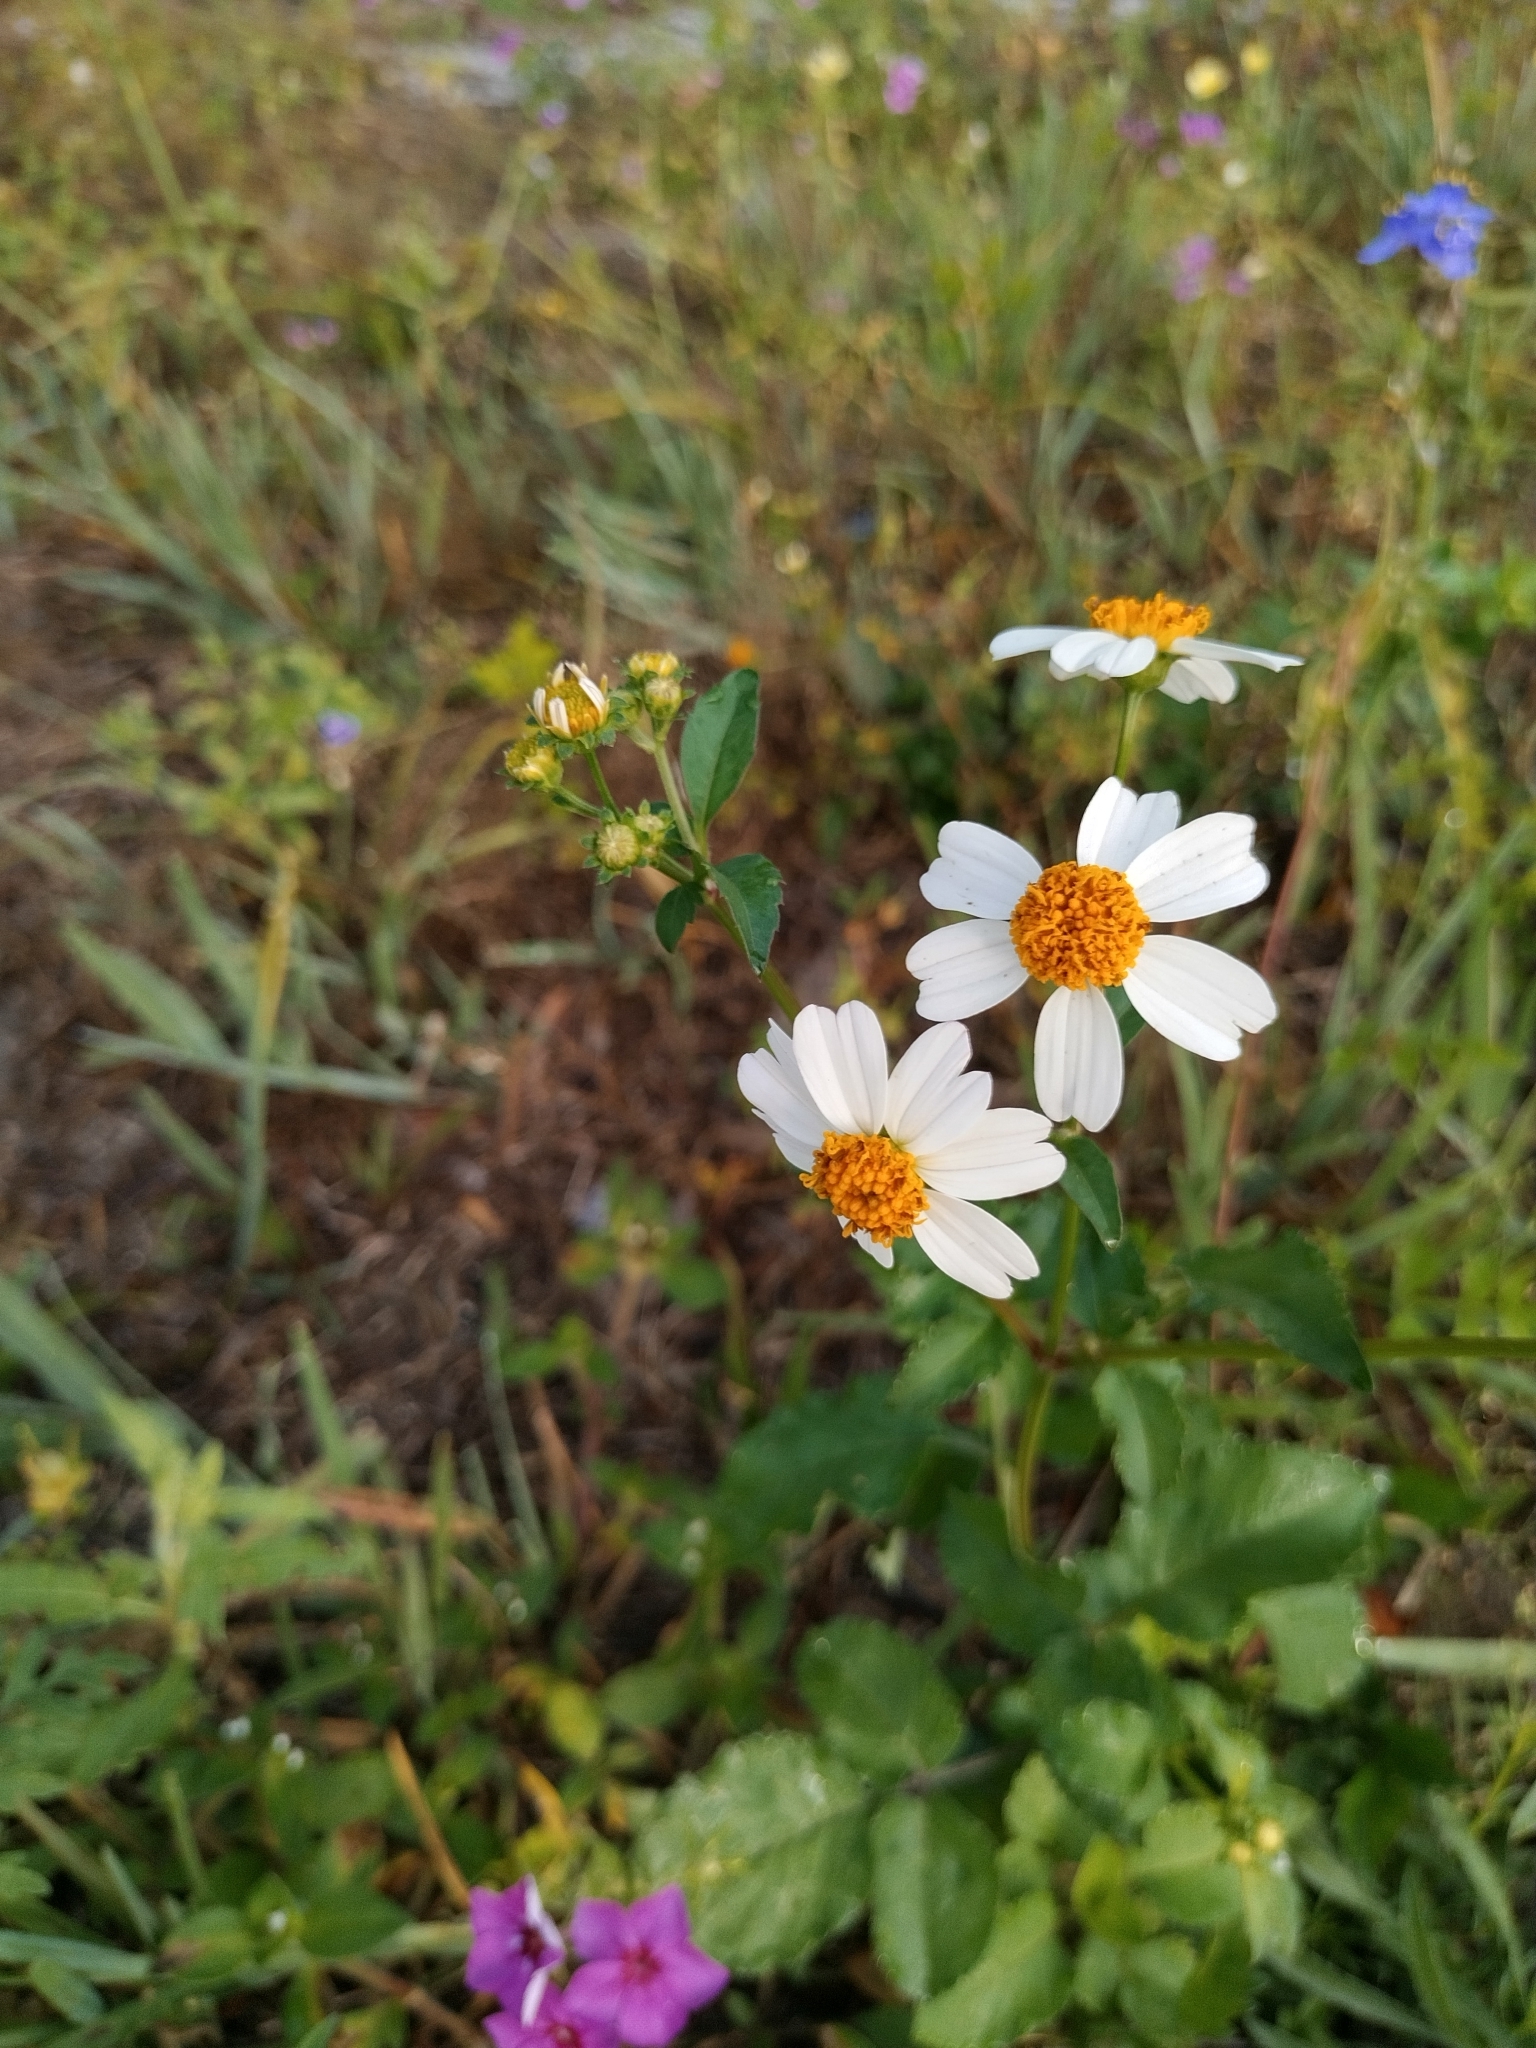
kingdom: Plantae
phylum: Tracheophyta
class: Magnoliopsida
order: Asterales
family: Asteraceae
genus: Bidens
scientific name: Bidens alba
